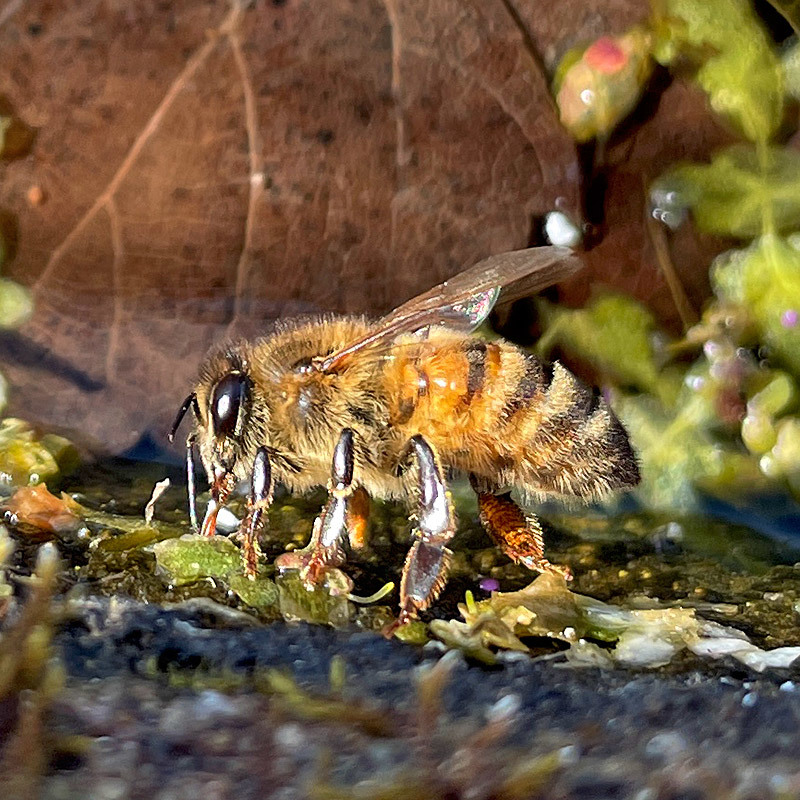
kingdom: Animalia
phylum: Arthropoda
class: Insecta
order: Hymenoptera
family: Apidae
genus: Apis
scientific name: Apis mellifera
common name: Honey bee
